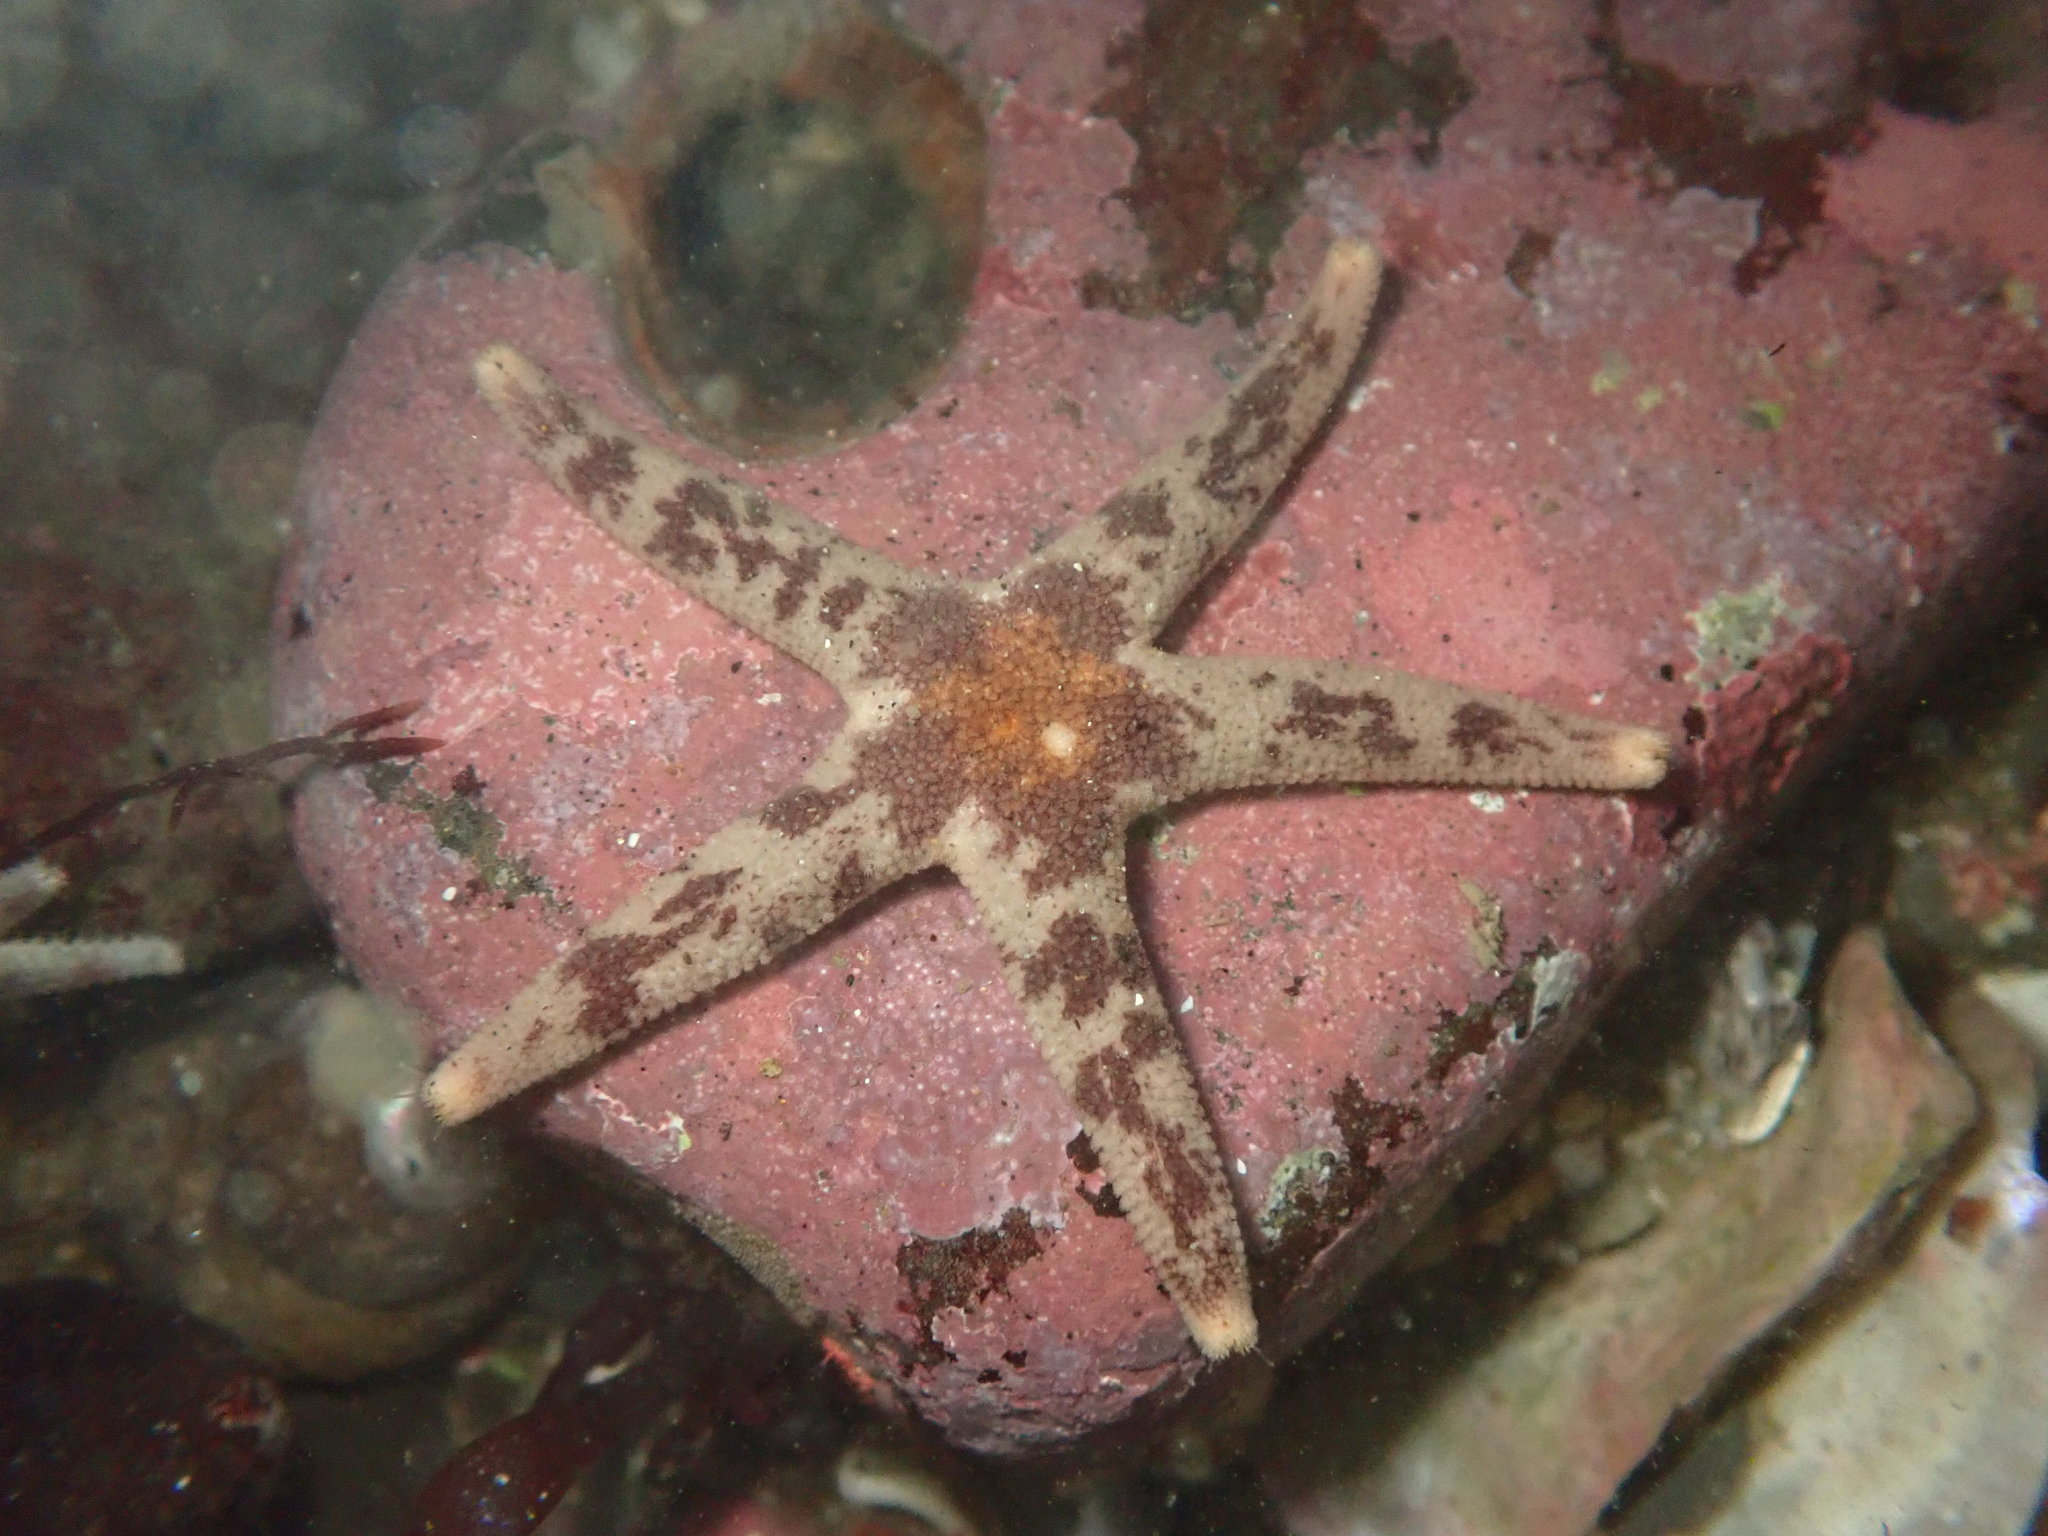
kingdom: Animalia
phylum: Echinodermata
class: Asteroidea
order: Spinulosida
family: Echinasteridae
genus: Henricia
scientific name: Henricia pumila
